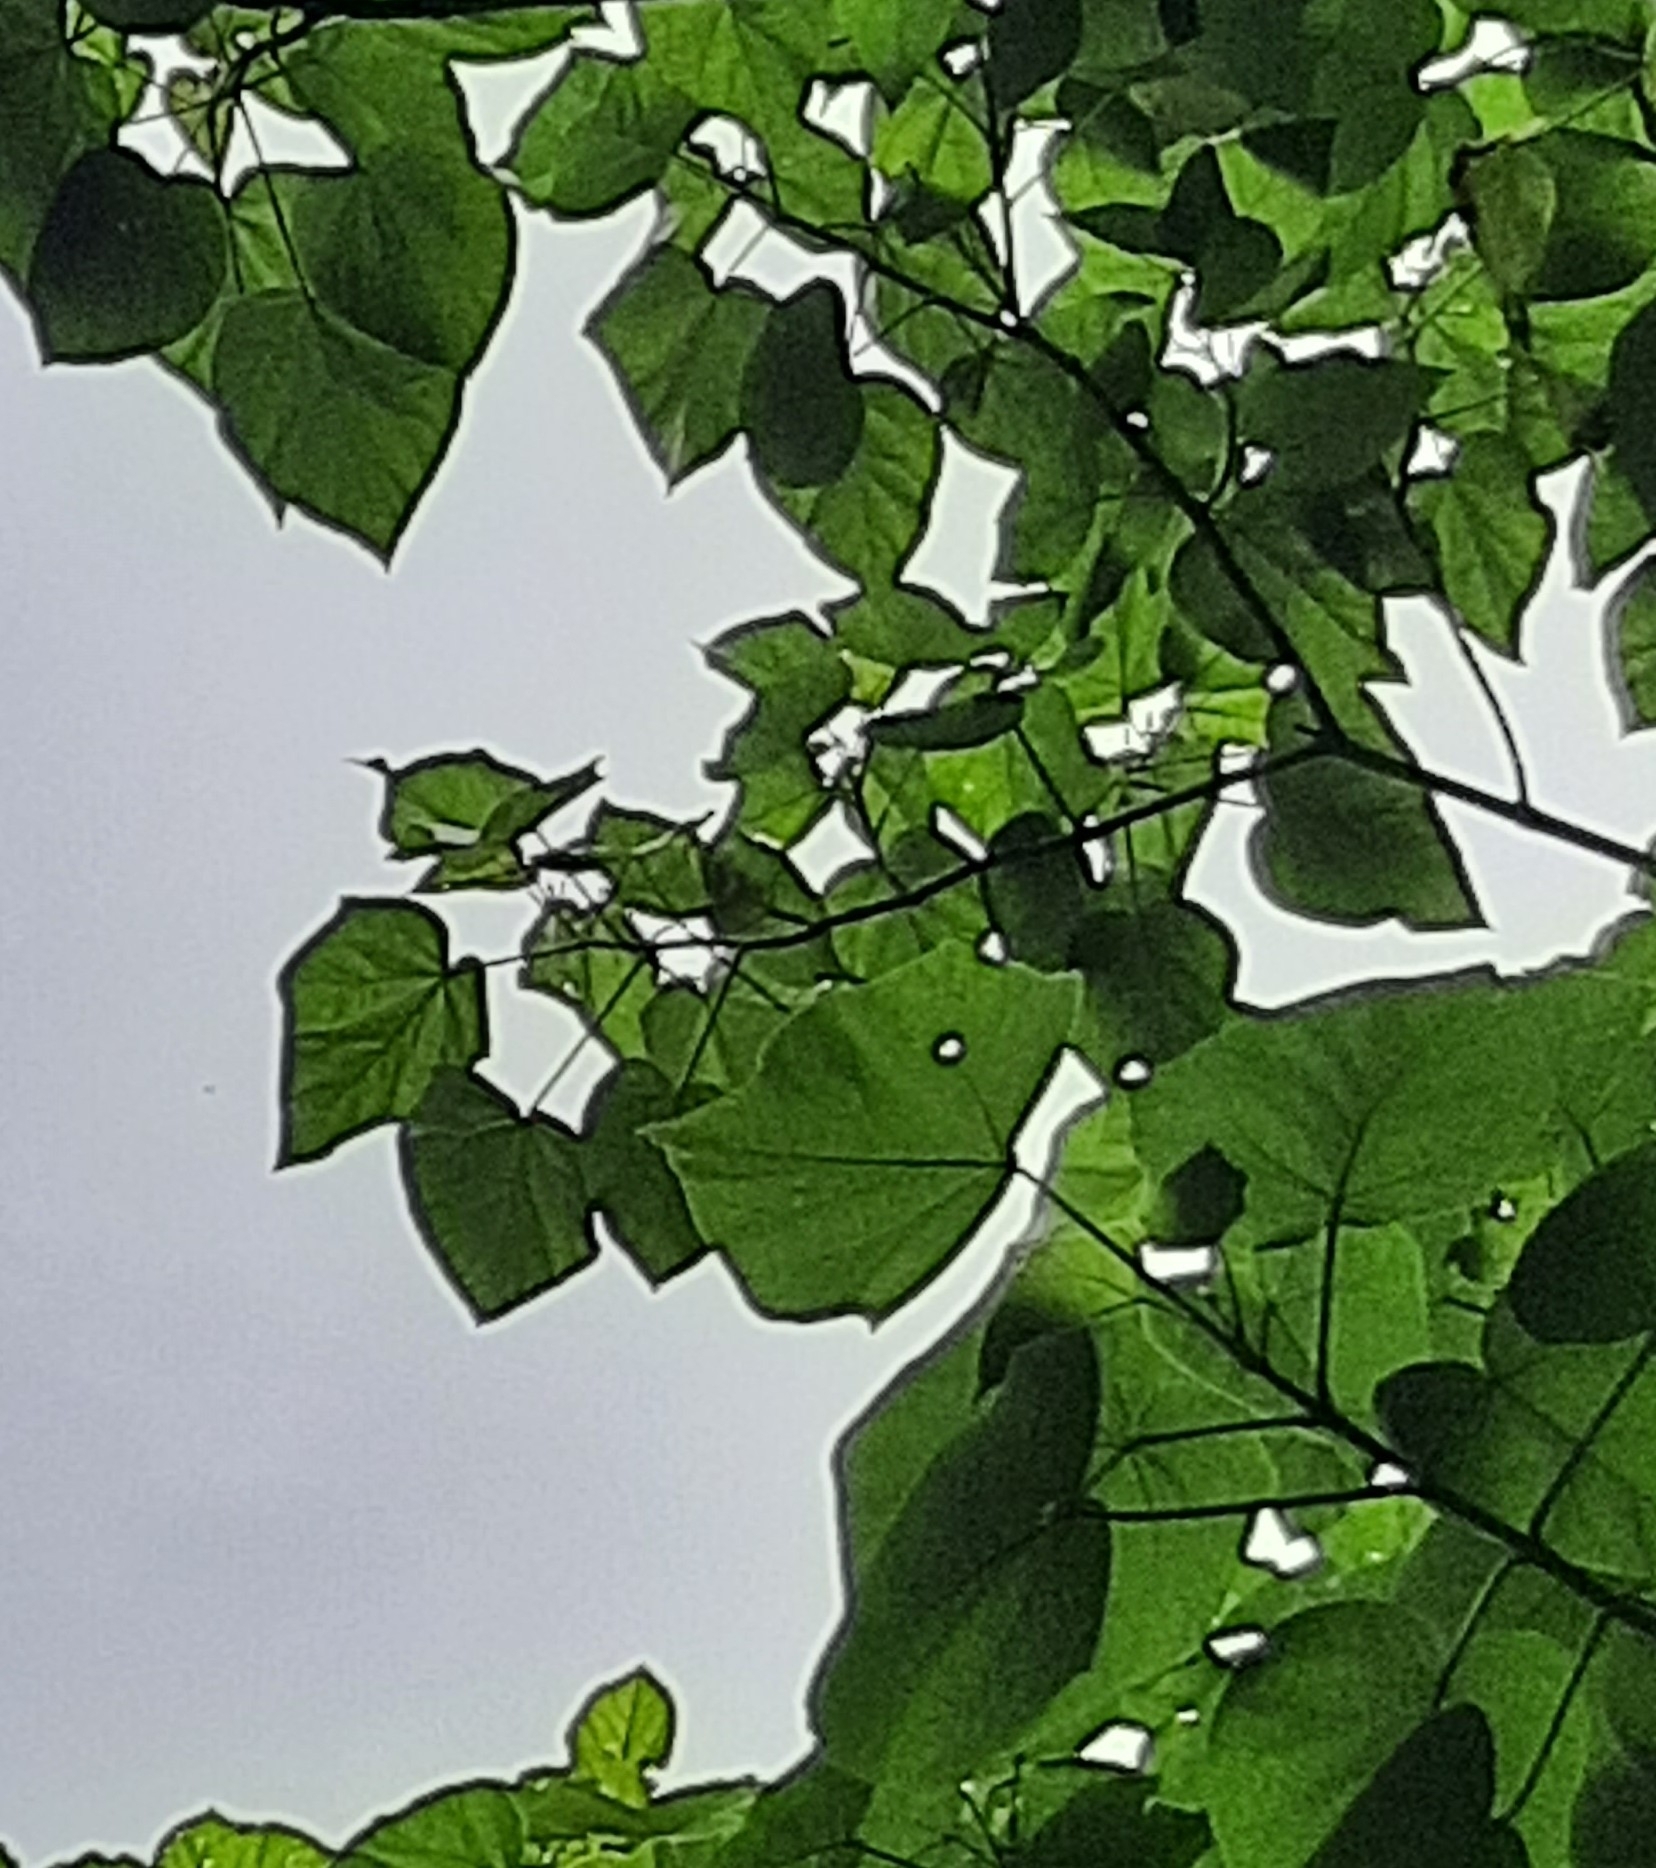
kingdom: Plantae
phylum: Tracheophyta
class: Magnoliopsida
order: Lamiales
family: Paulowniaceae
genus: Paulownia
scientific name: Paulownia tomentosa
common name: Foxglove-tree
